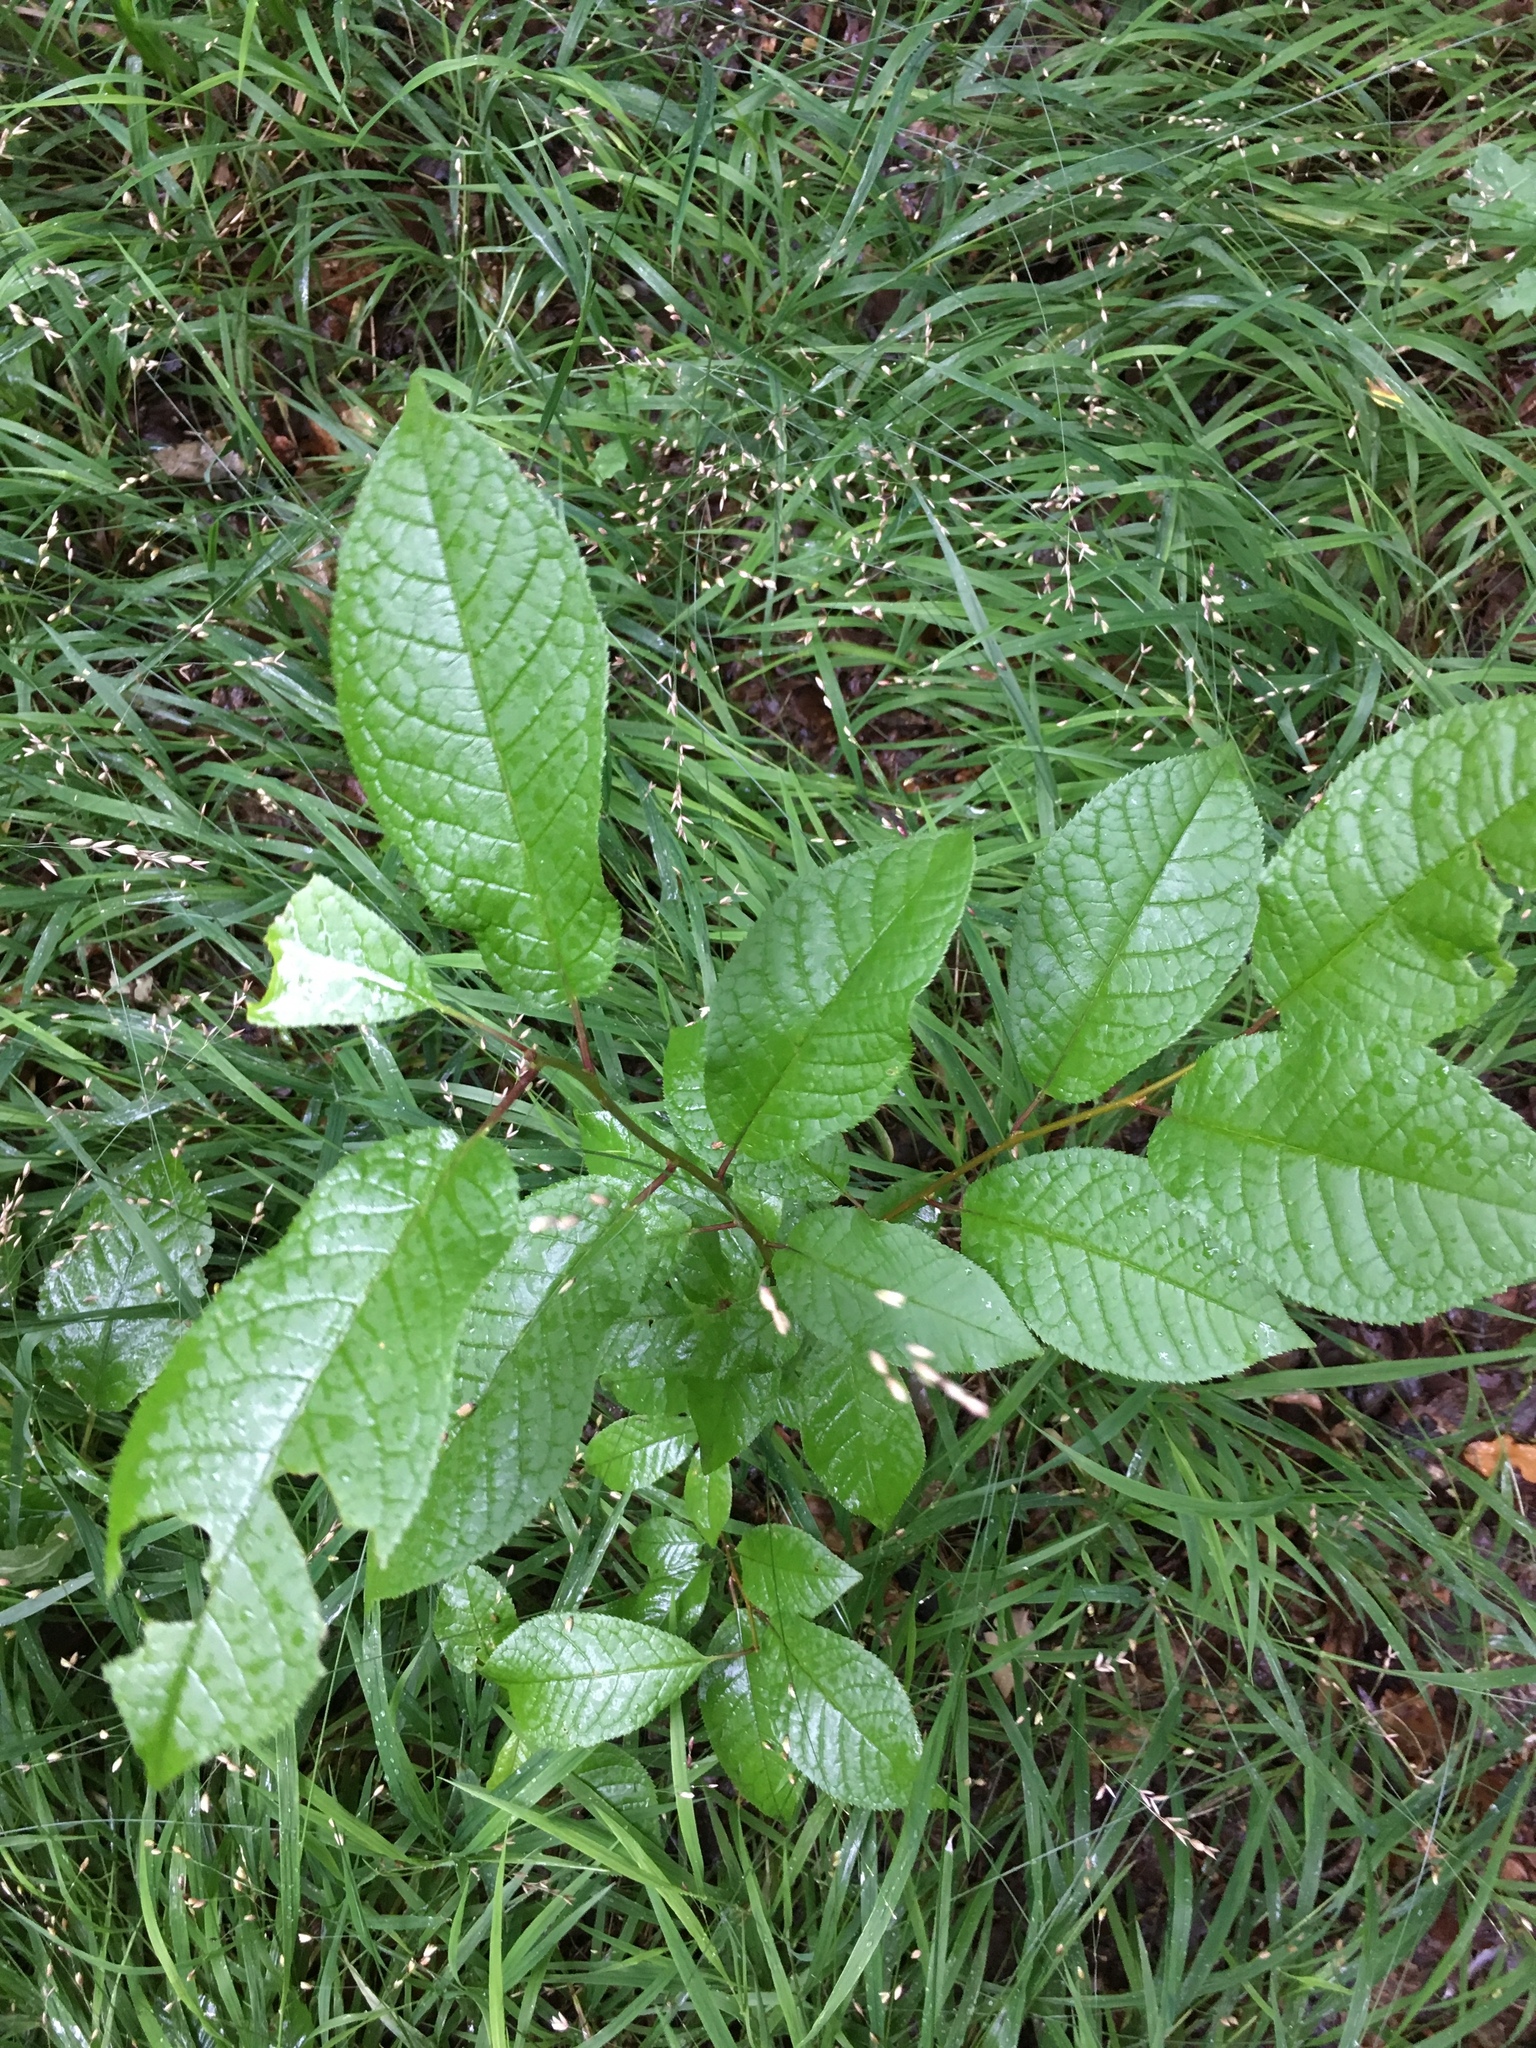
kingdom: Plantae
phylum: Tracheophyta
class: Magnoliopsida
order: Rosales
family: Rosaceae
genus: Prunus
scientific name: Prunus padus
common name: Bird cherry
